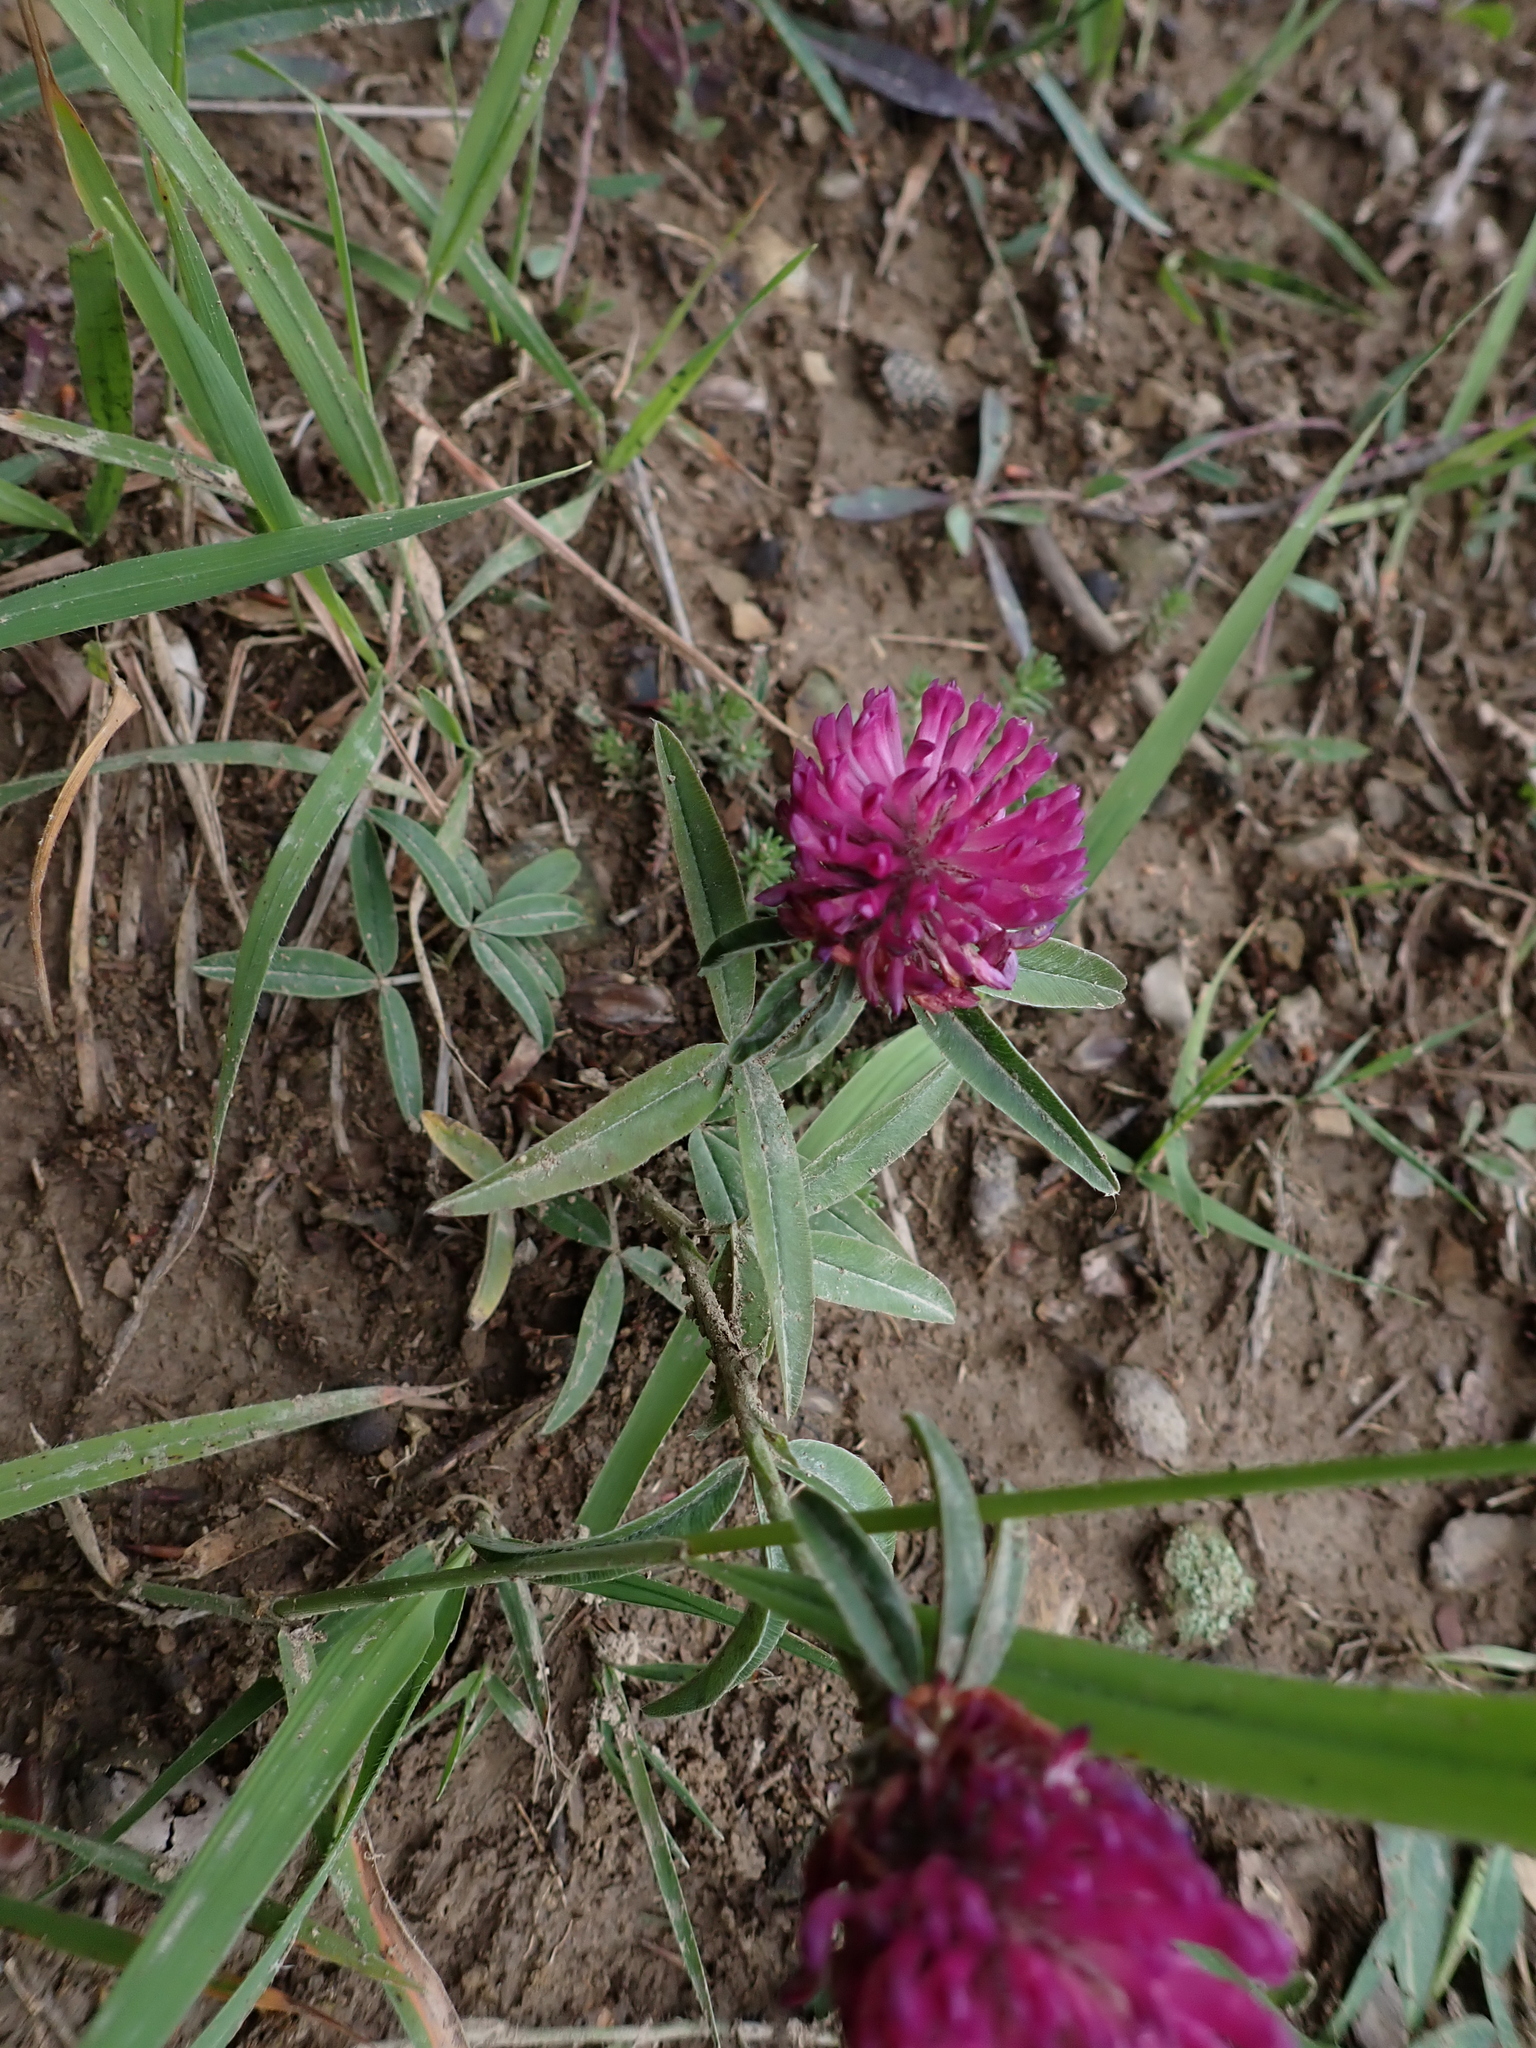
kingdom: Plantae
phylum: Tracheophyta
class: Magnoliopsida
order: Fabales
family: Fabaceae
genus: Trifolium
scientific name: Trifolium alpestre
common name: Owl-head clover
